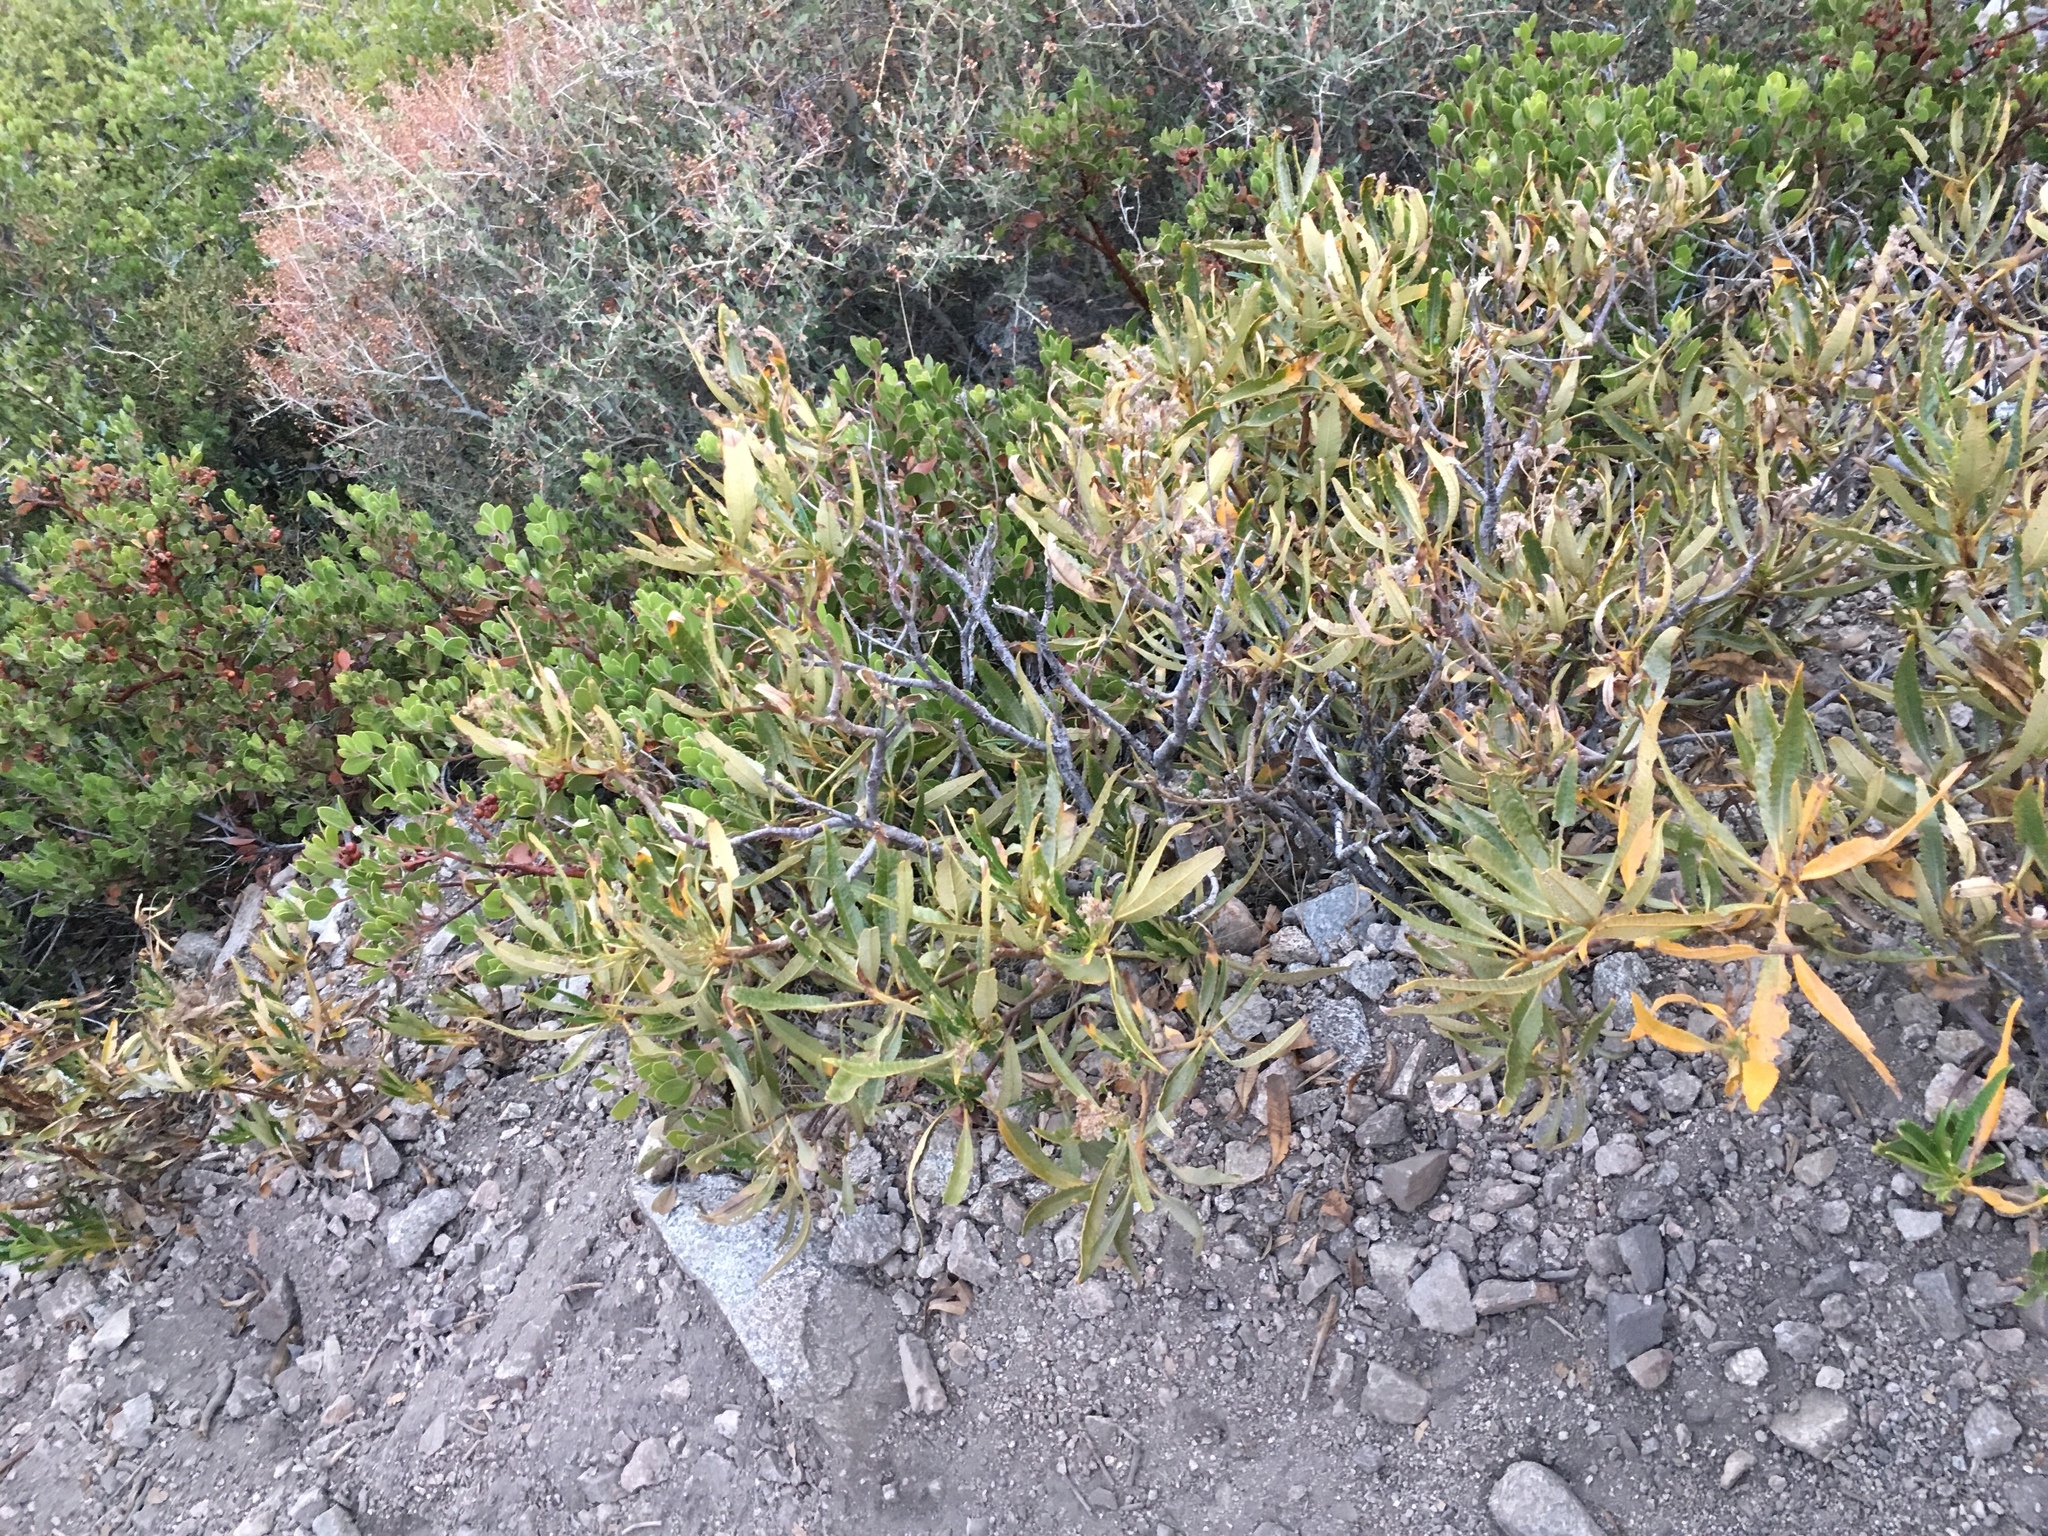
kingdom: Plantae
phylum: Tracheophyta
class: Magnoliopsida
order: Boraginales
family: Namaceae
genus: Eriodictyon
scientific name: Eriodictyon trichocalyx
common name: Hairy yerba-santa
